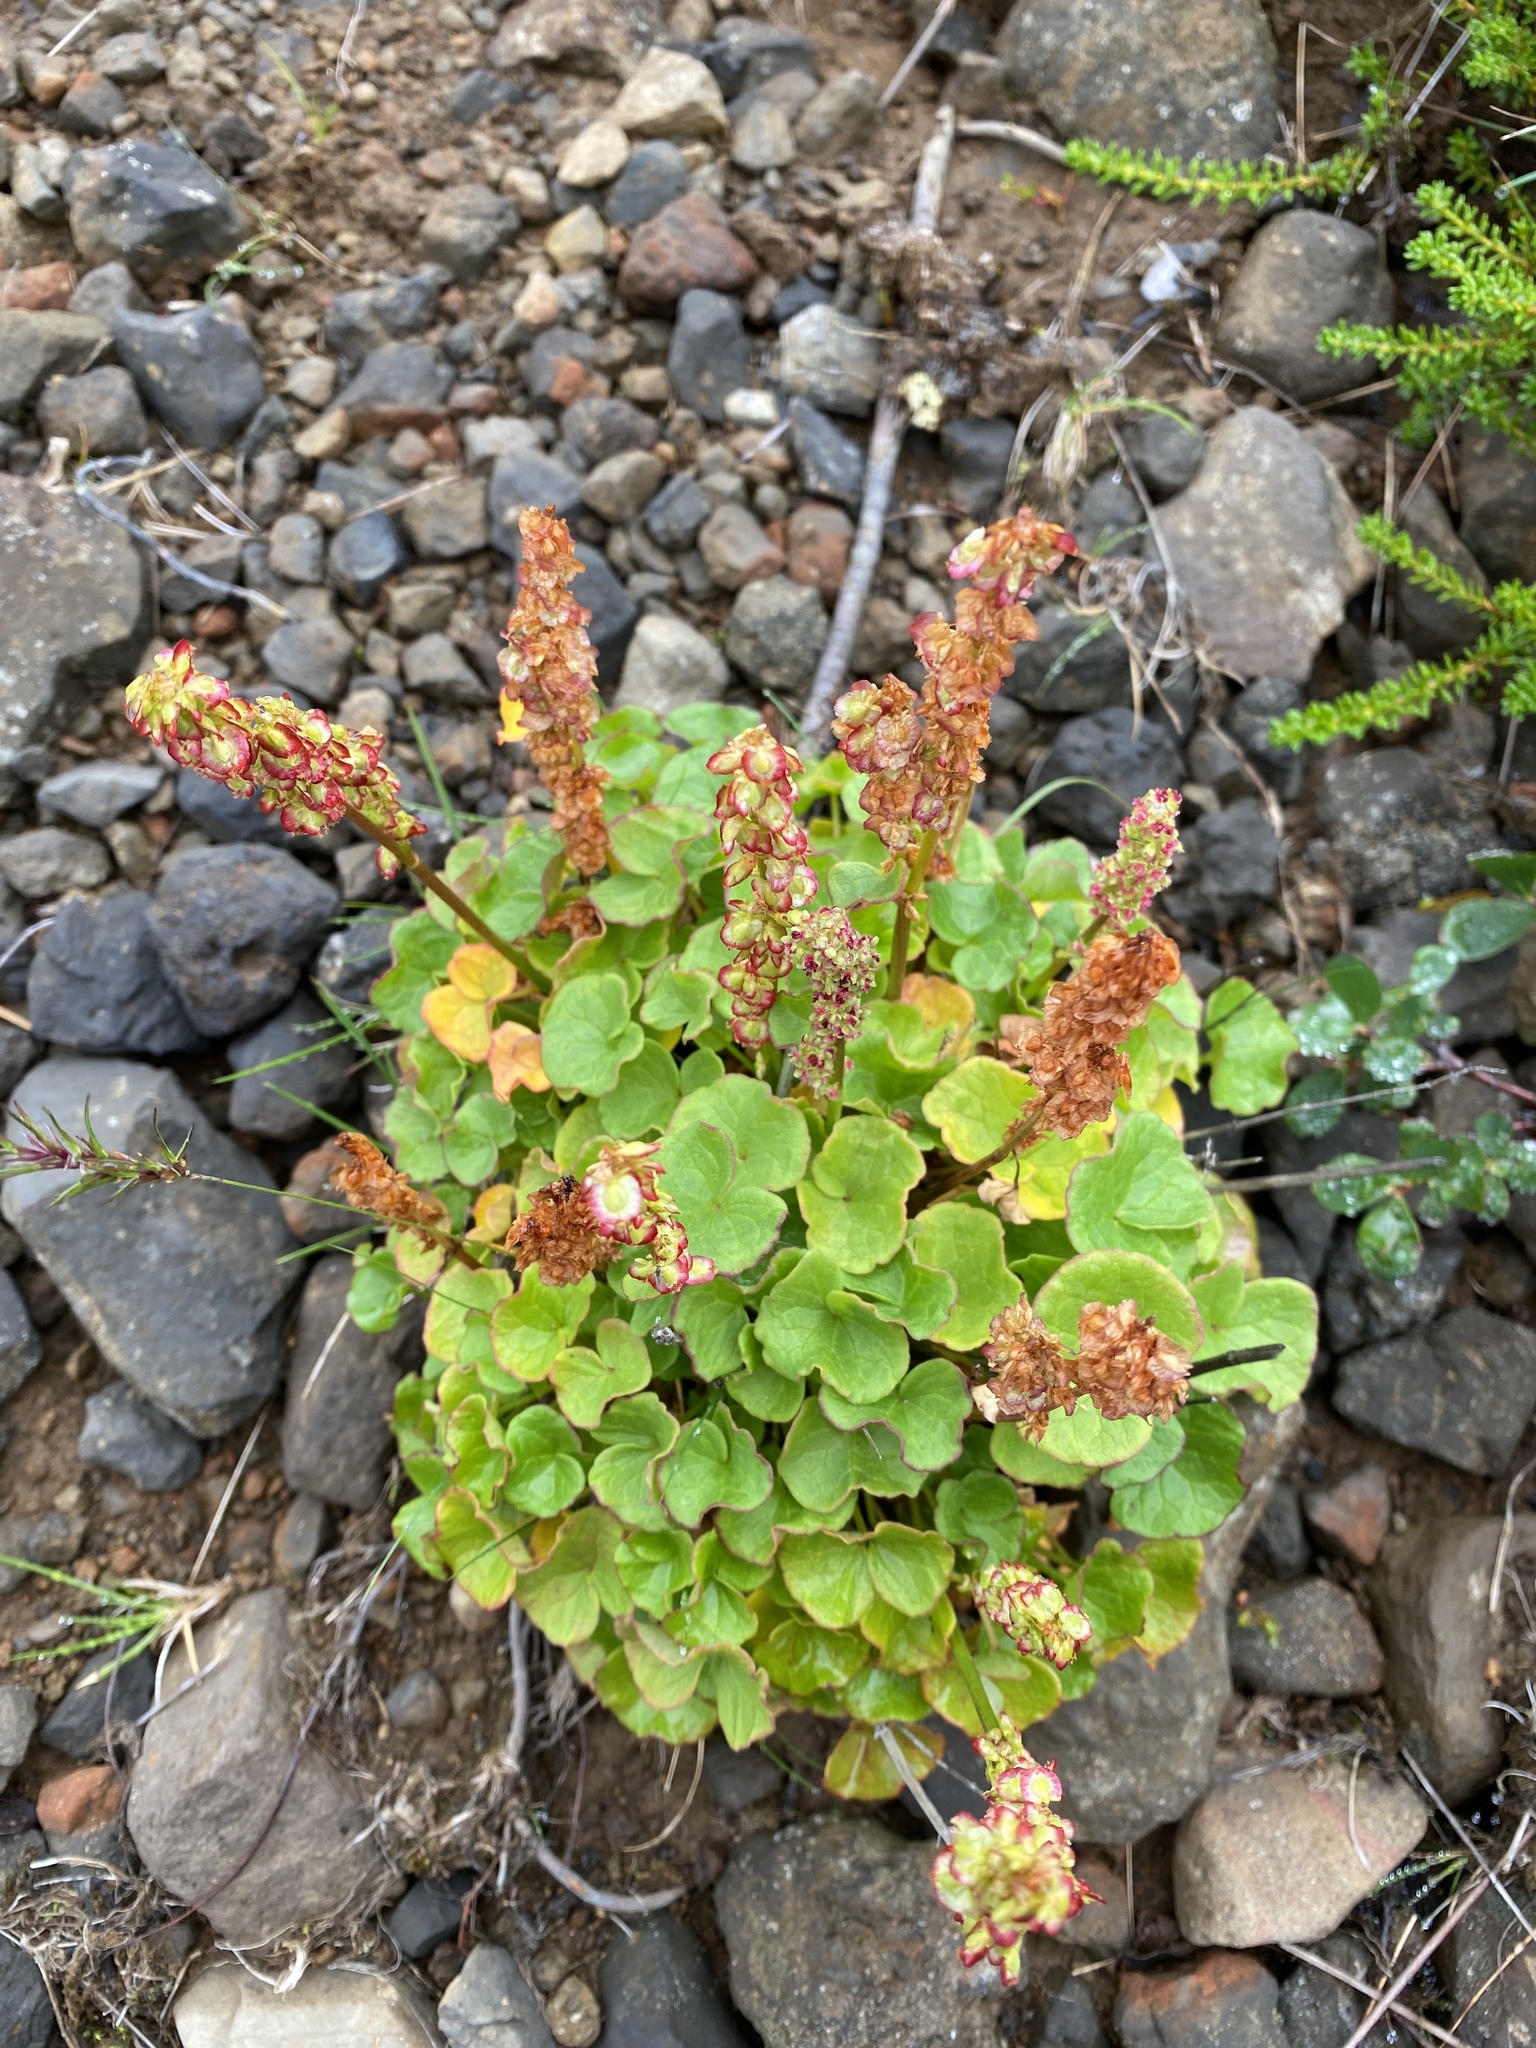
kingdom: Plantae
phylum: Tracheophyta
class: Magnoliopsida
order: Caryophyllales
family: Polygonaceae
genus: Oxyria
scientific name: Oxyria digyna
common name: Alpine mountain-sorrel
